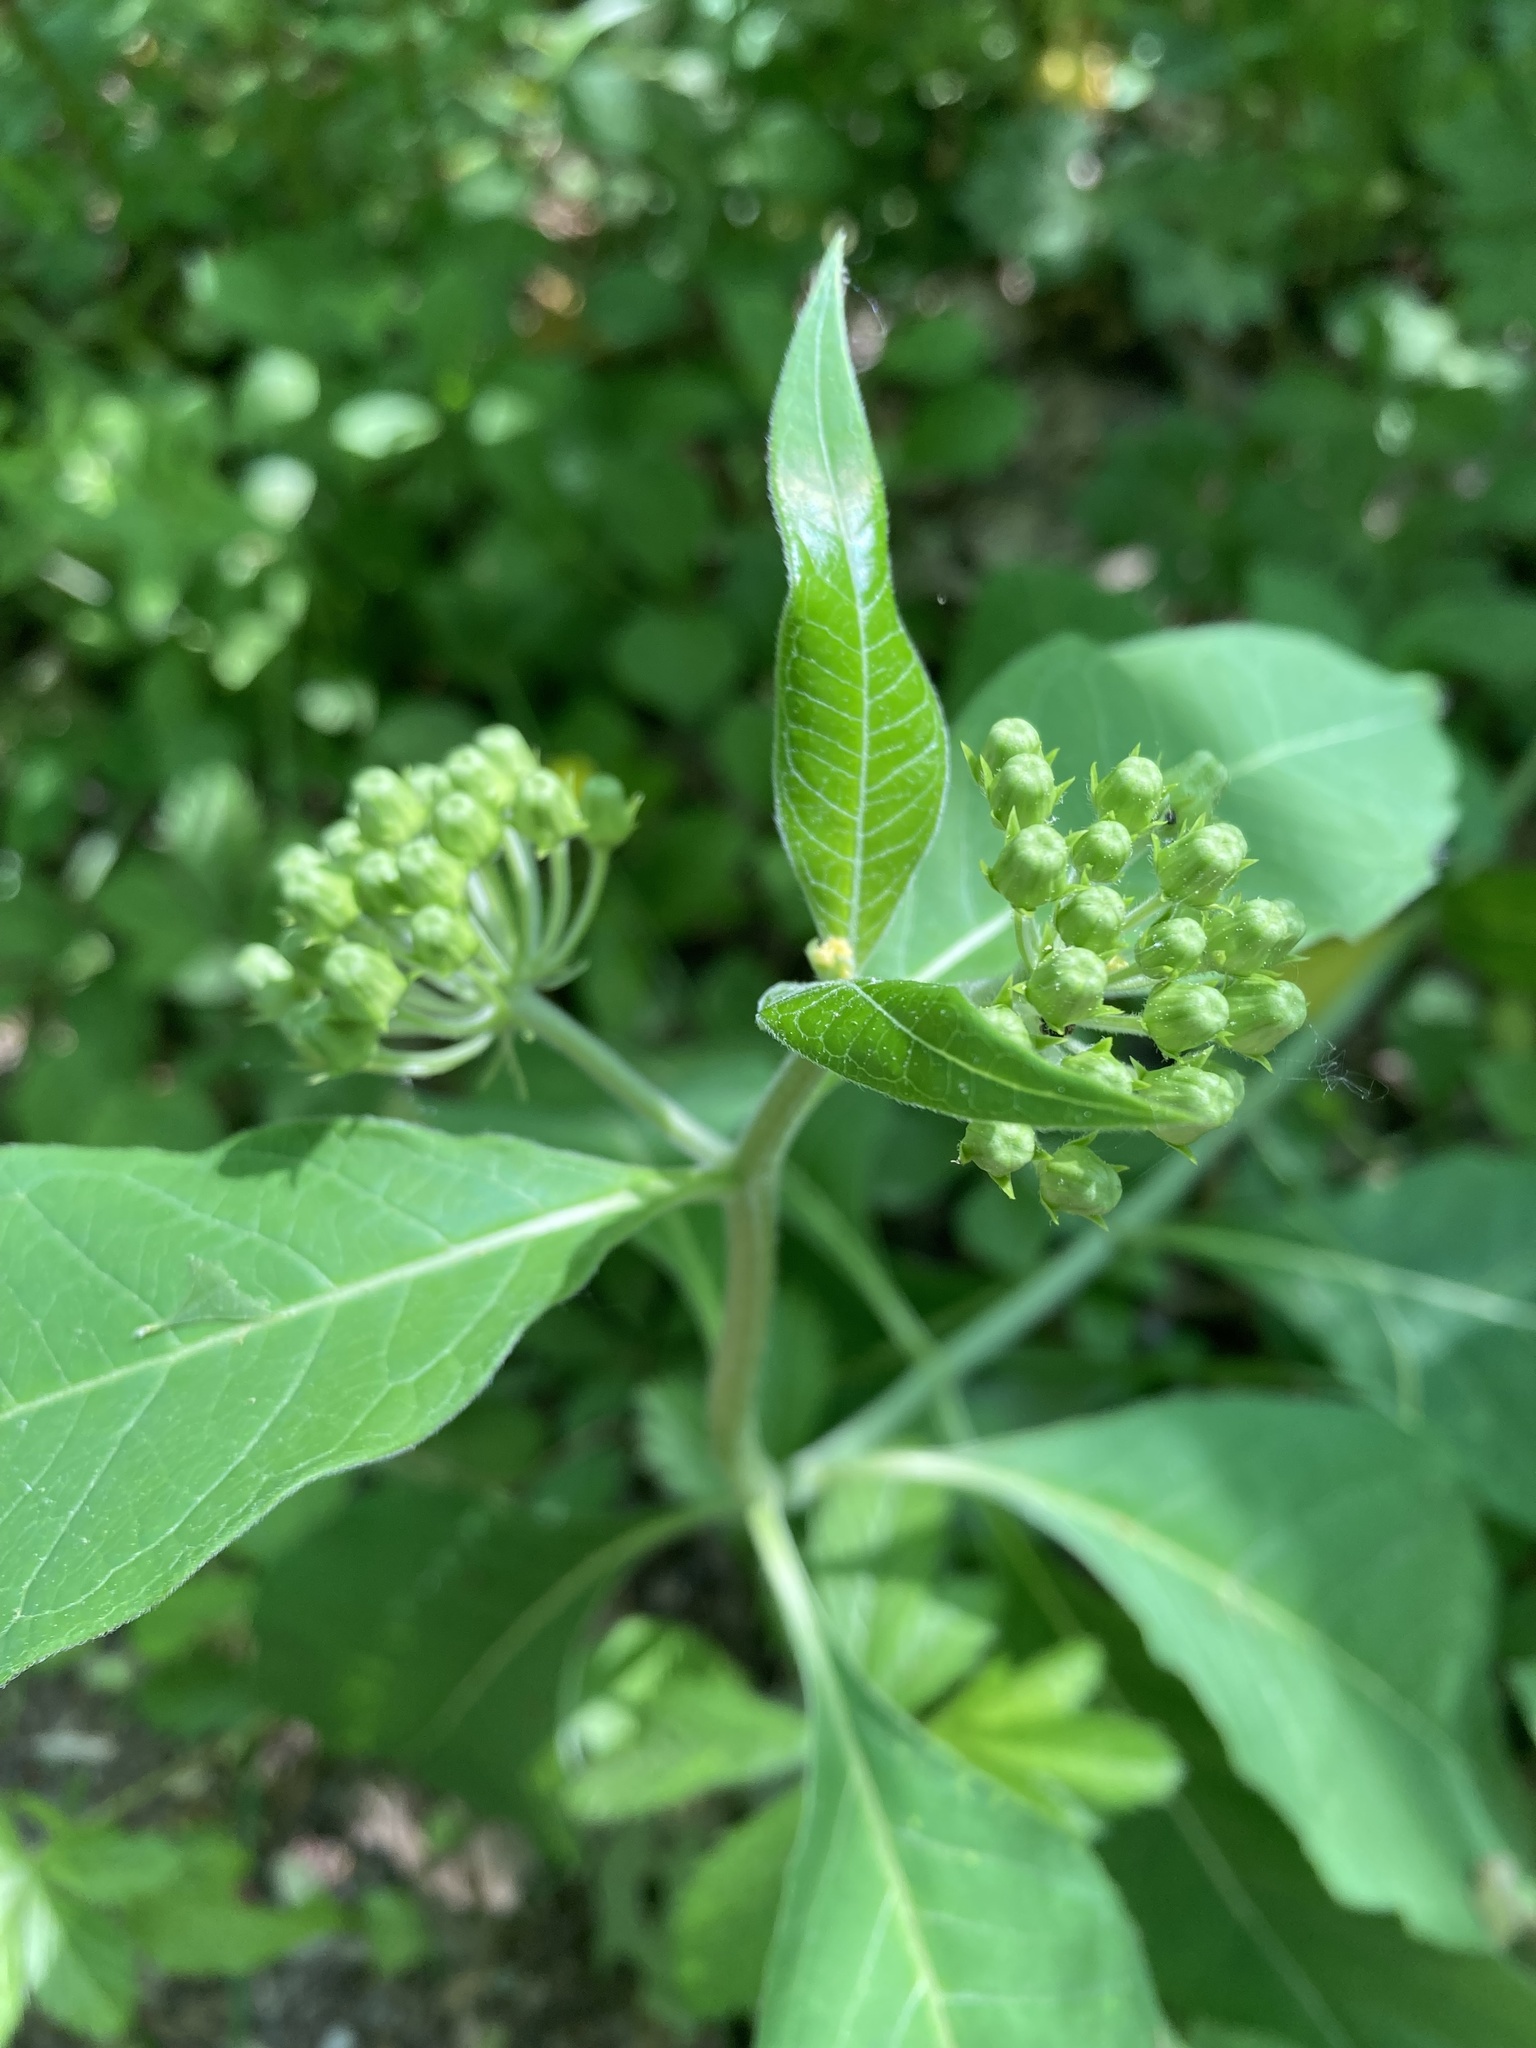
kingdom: Plantae
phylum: Tracheophyta
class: Magnoliopsida
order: Gentianales
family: Apocynaceae
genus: Asclepias
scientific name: Asclepias exaltata
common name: Poke milkweed
